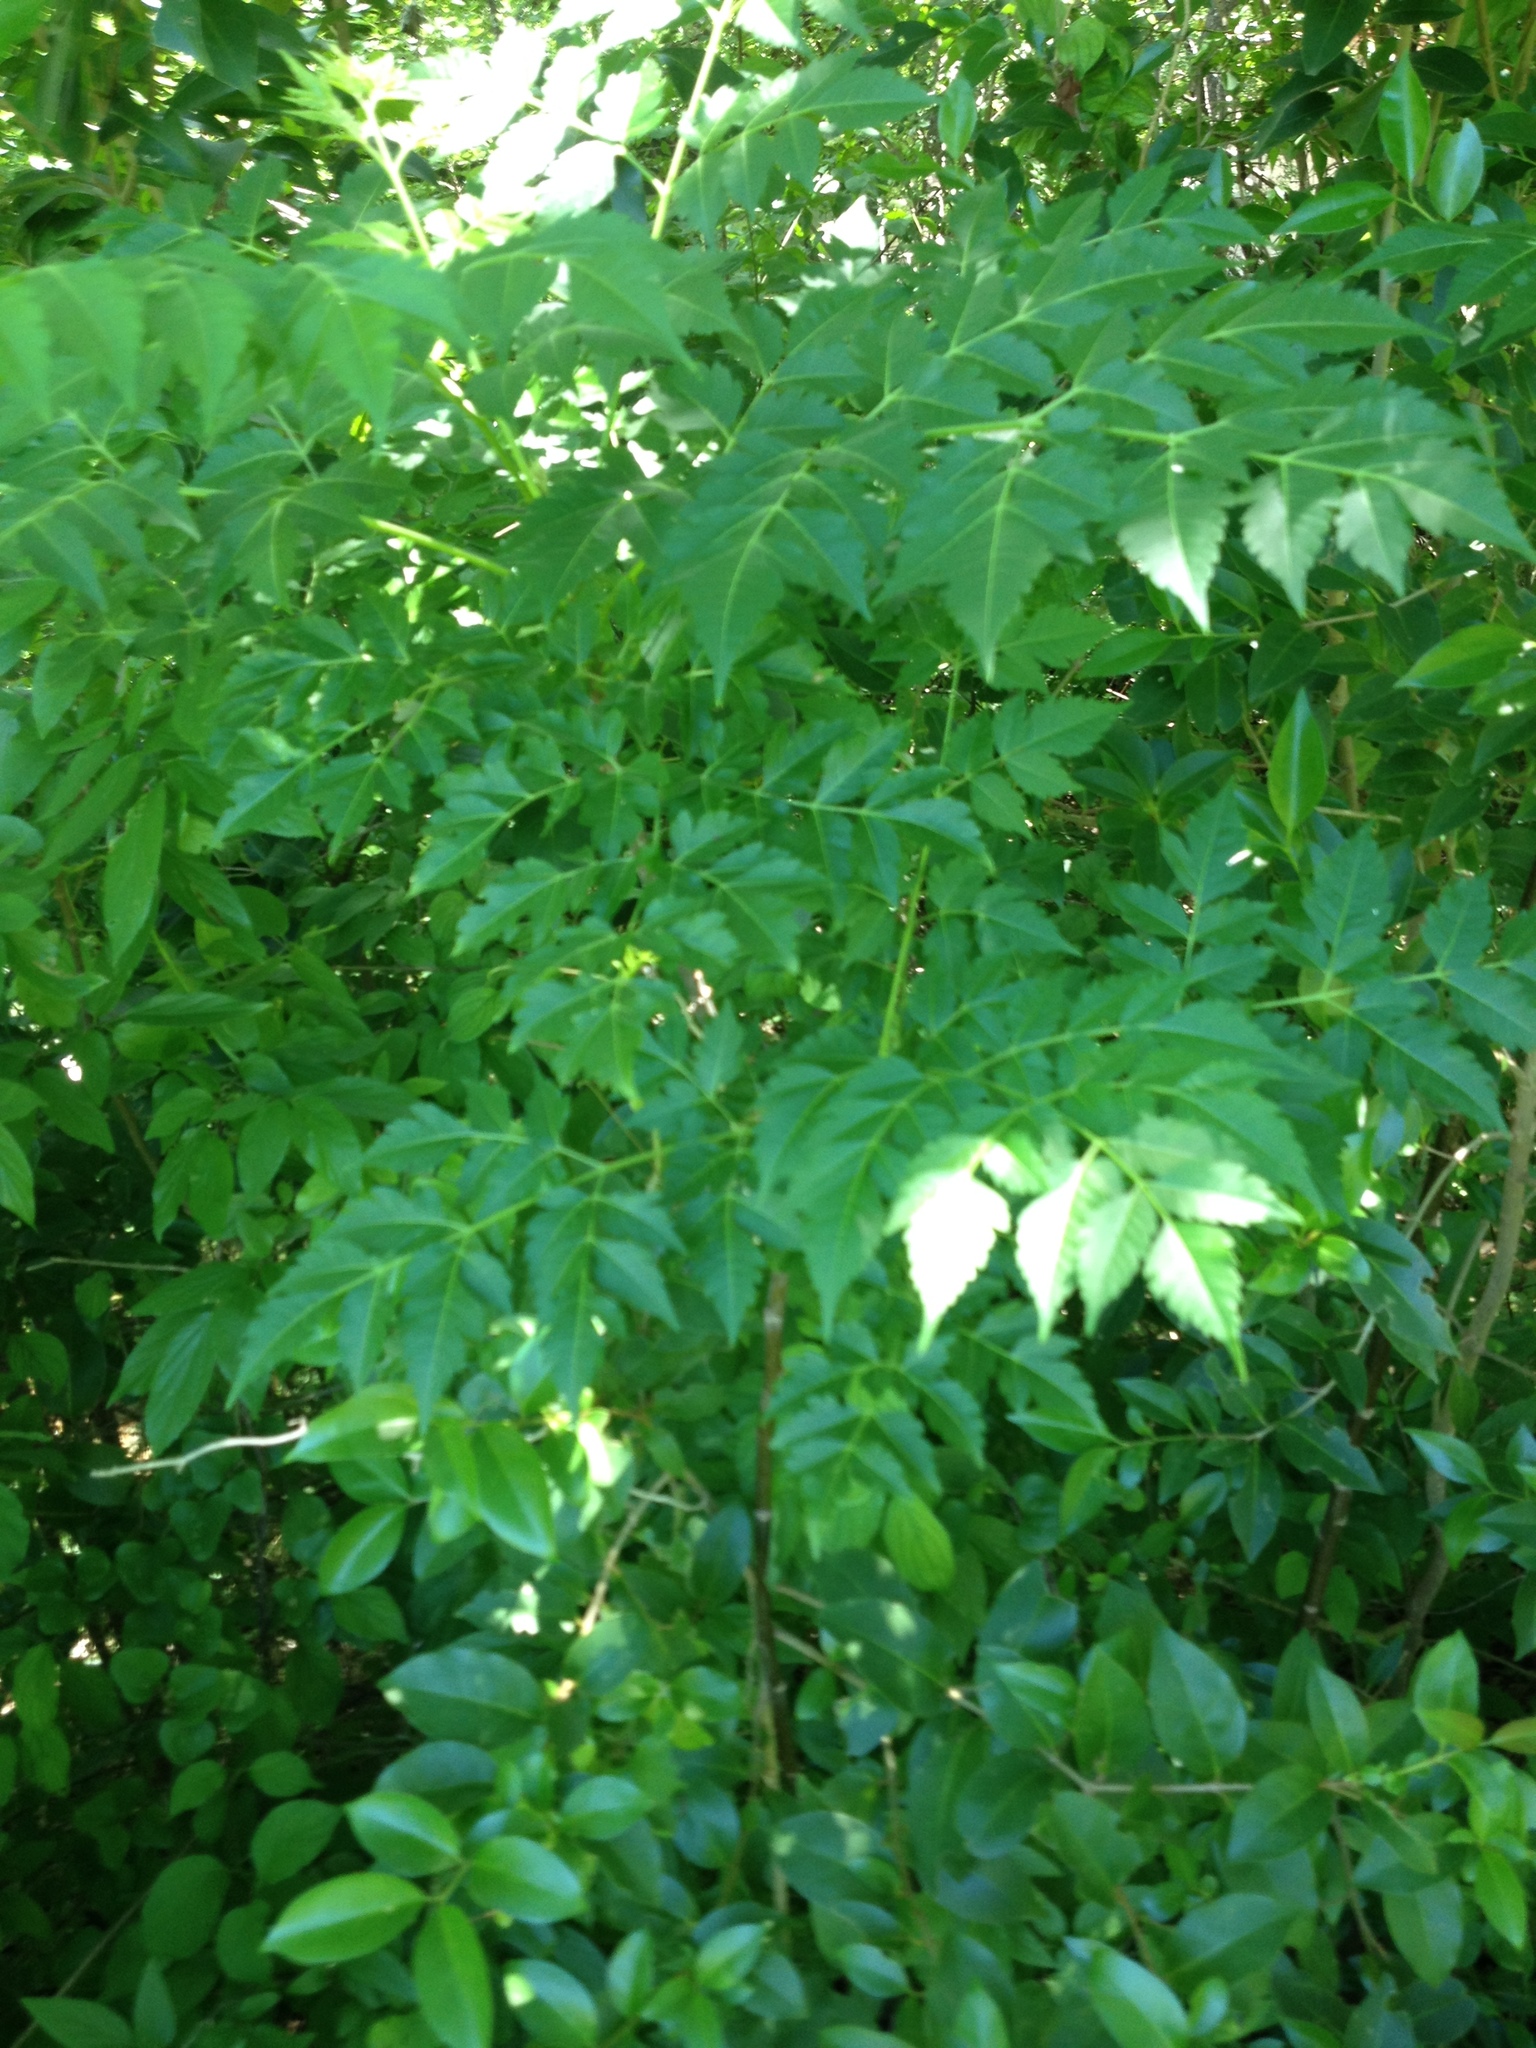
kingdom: Plantae
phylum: Tracheophyta
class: Magnoliopsida
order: Sapindales
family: Meliaceae
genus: Melia
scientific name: Melia azedarach
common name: Chinaberrytree
